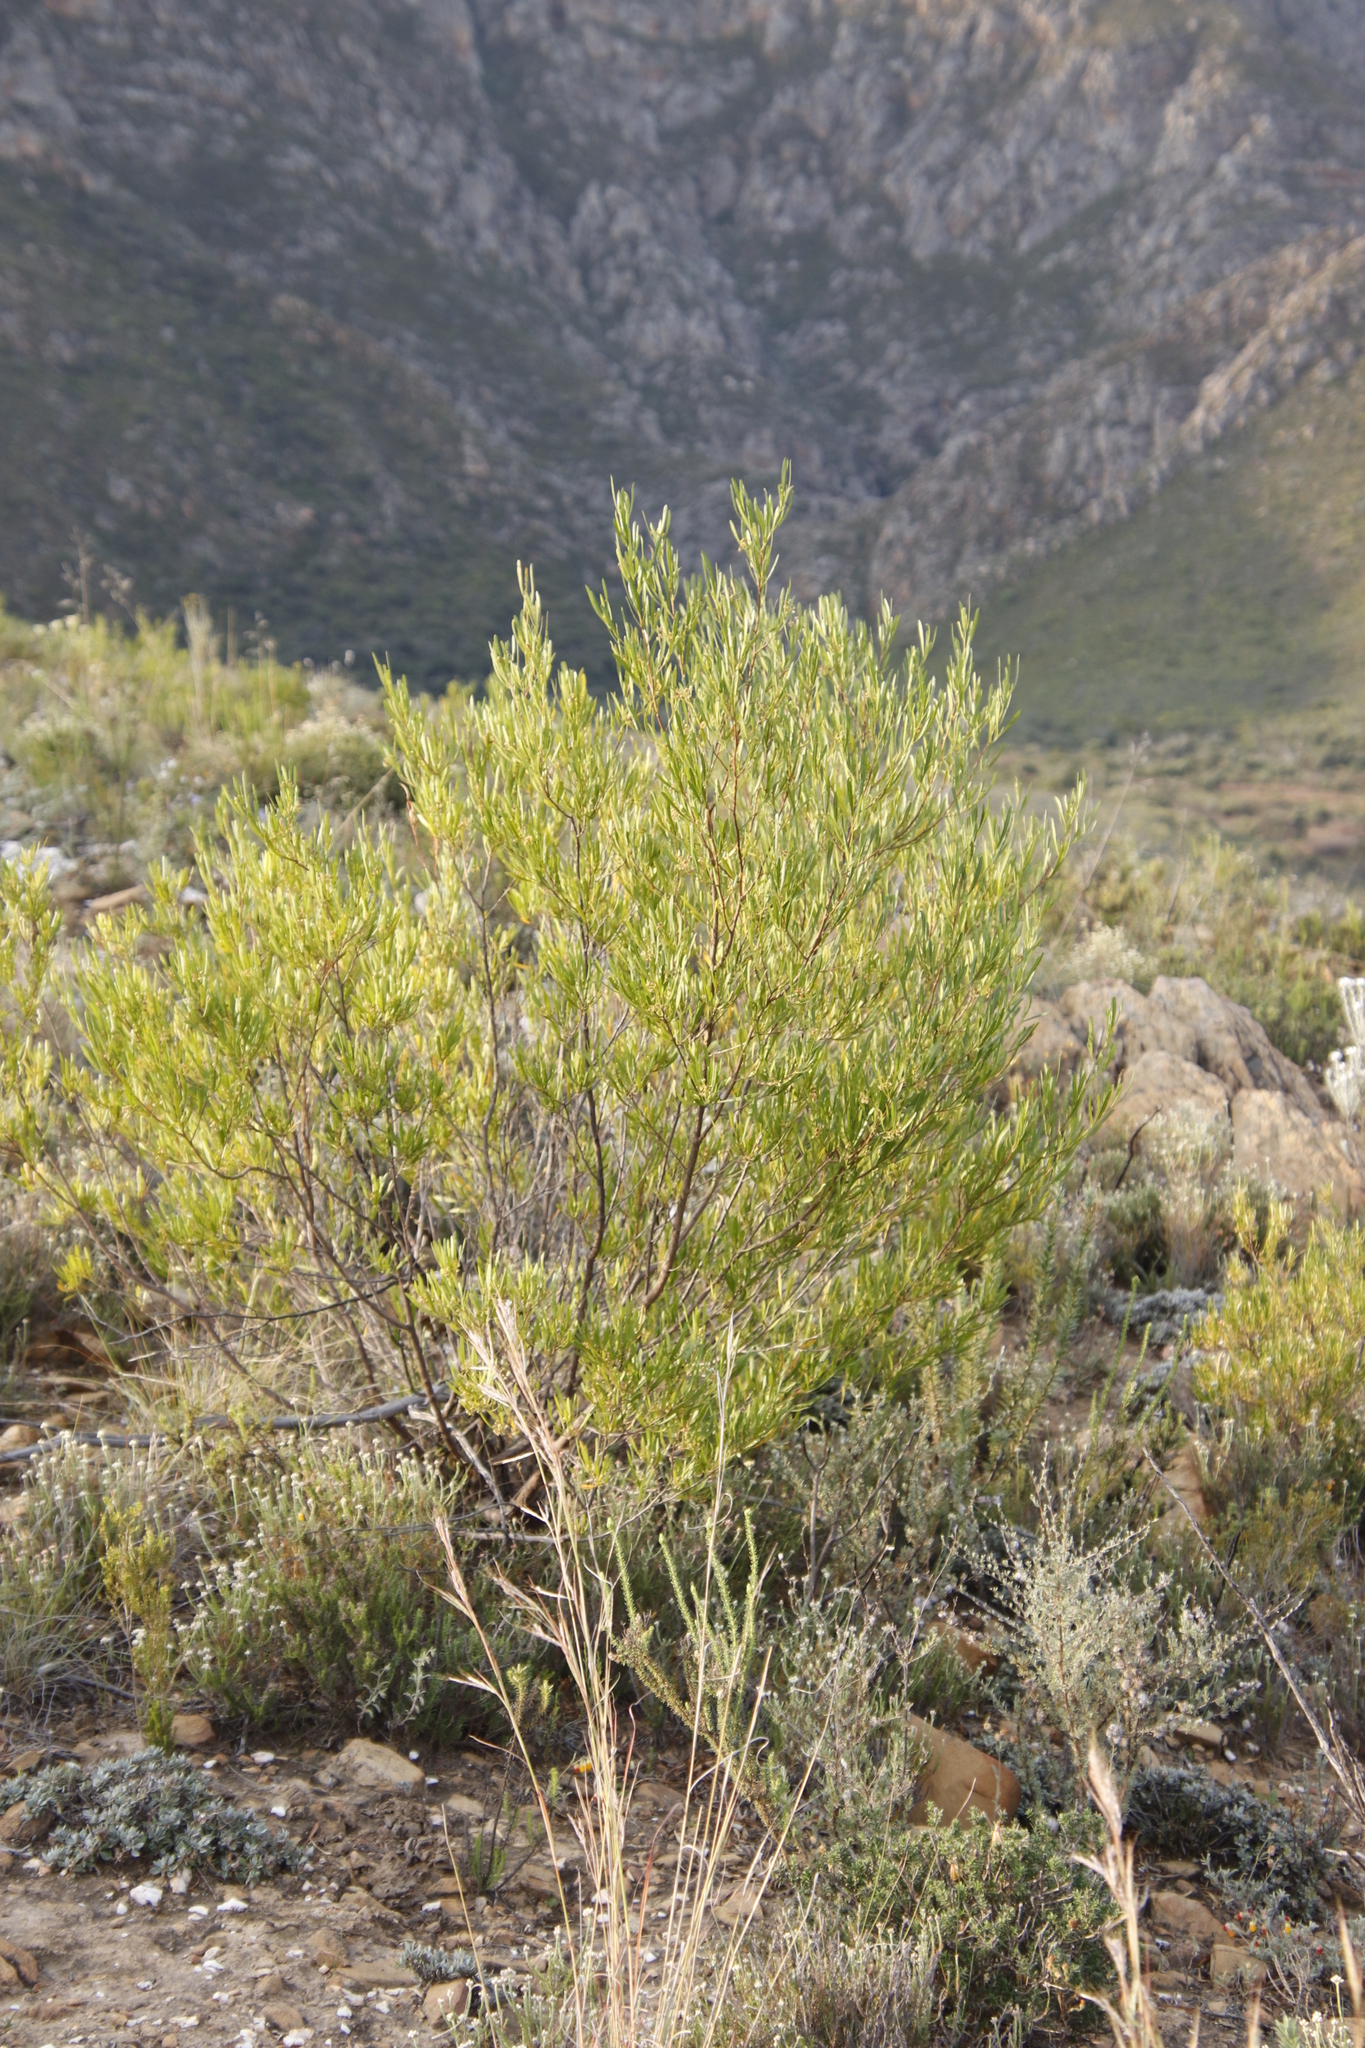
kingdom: Plantae
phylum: Tracheophyta
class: Magnoliopsida
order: Sapindales
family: Sapindaceae
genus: Dodonaea
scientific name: Dodonaea viscosa
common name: Hopbush
